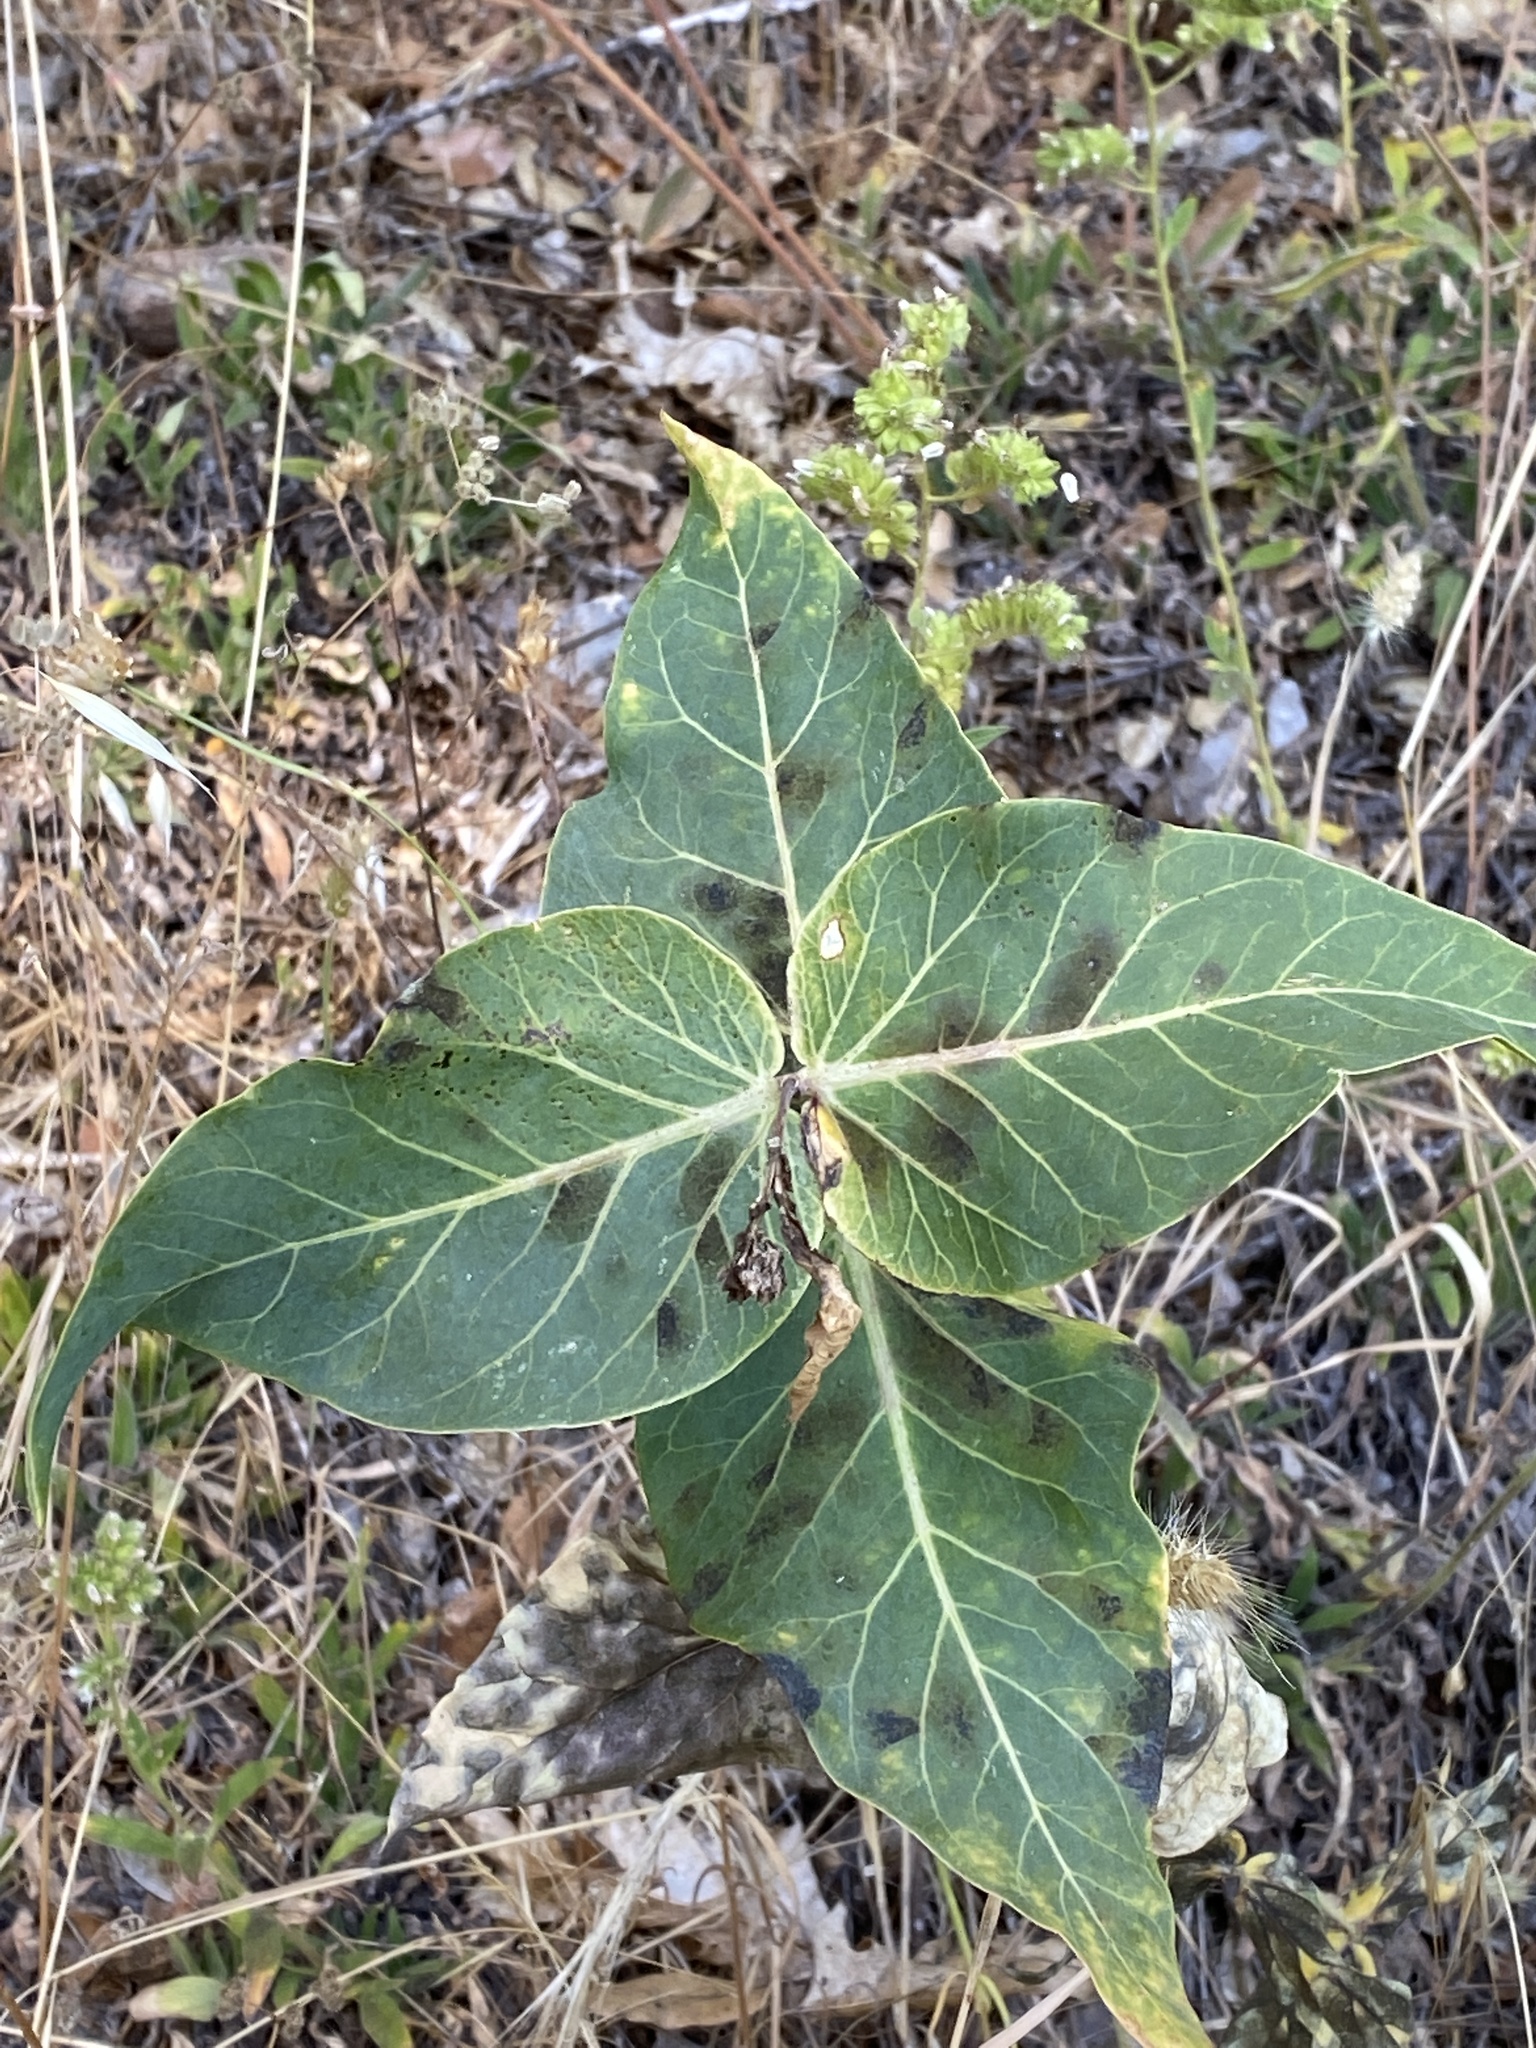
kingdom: Plantae
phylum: Tracheophyta
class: Magnoliopsida
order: Gentianales
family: Apocynaceae
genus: Asclepias
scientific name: Asclepias cordifolia
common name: Purple milkweed
